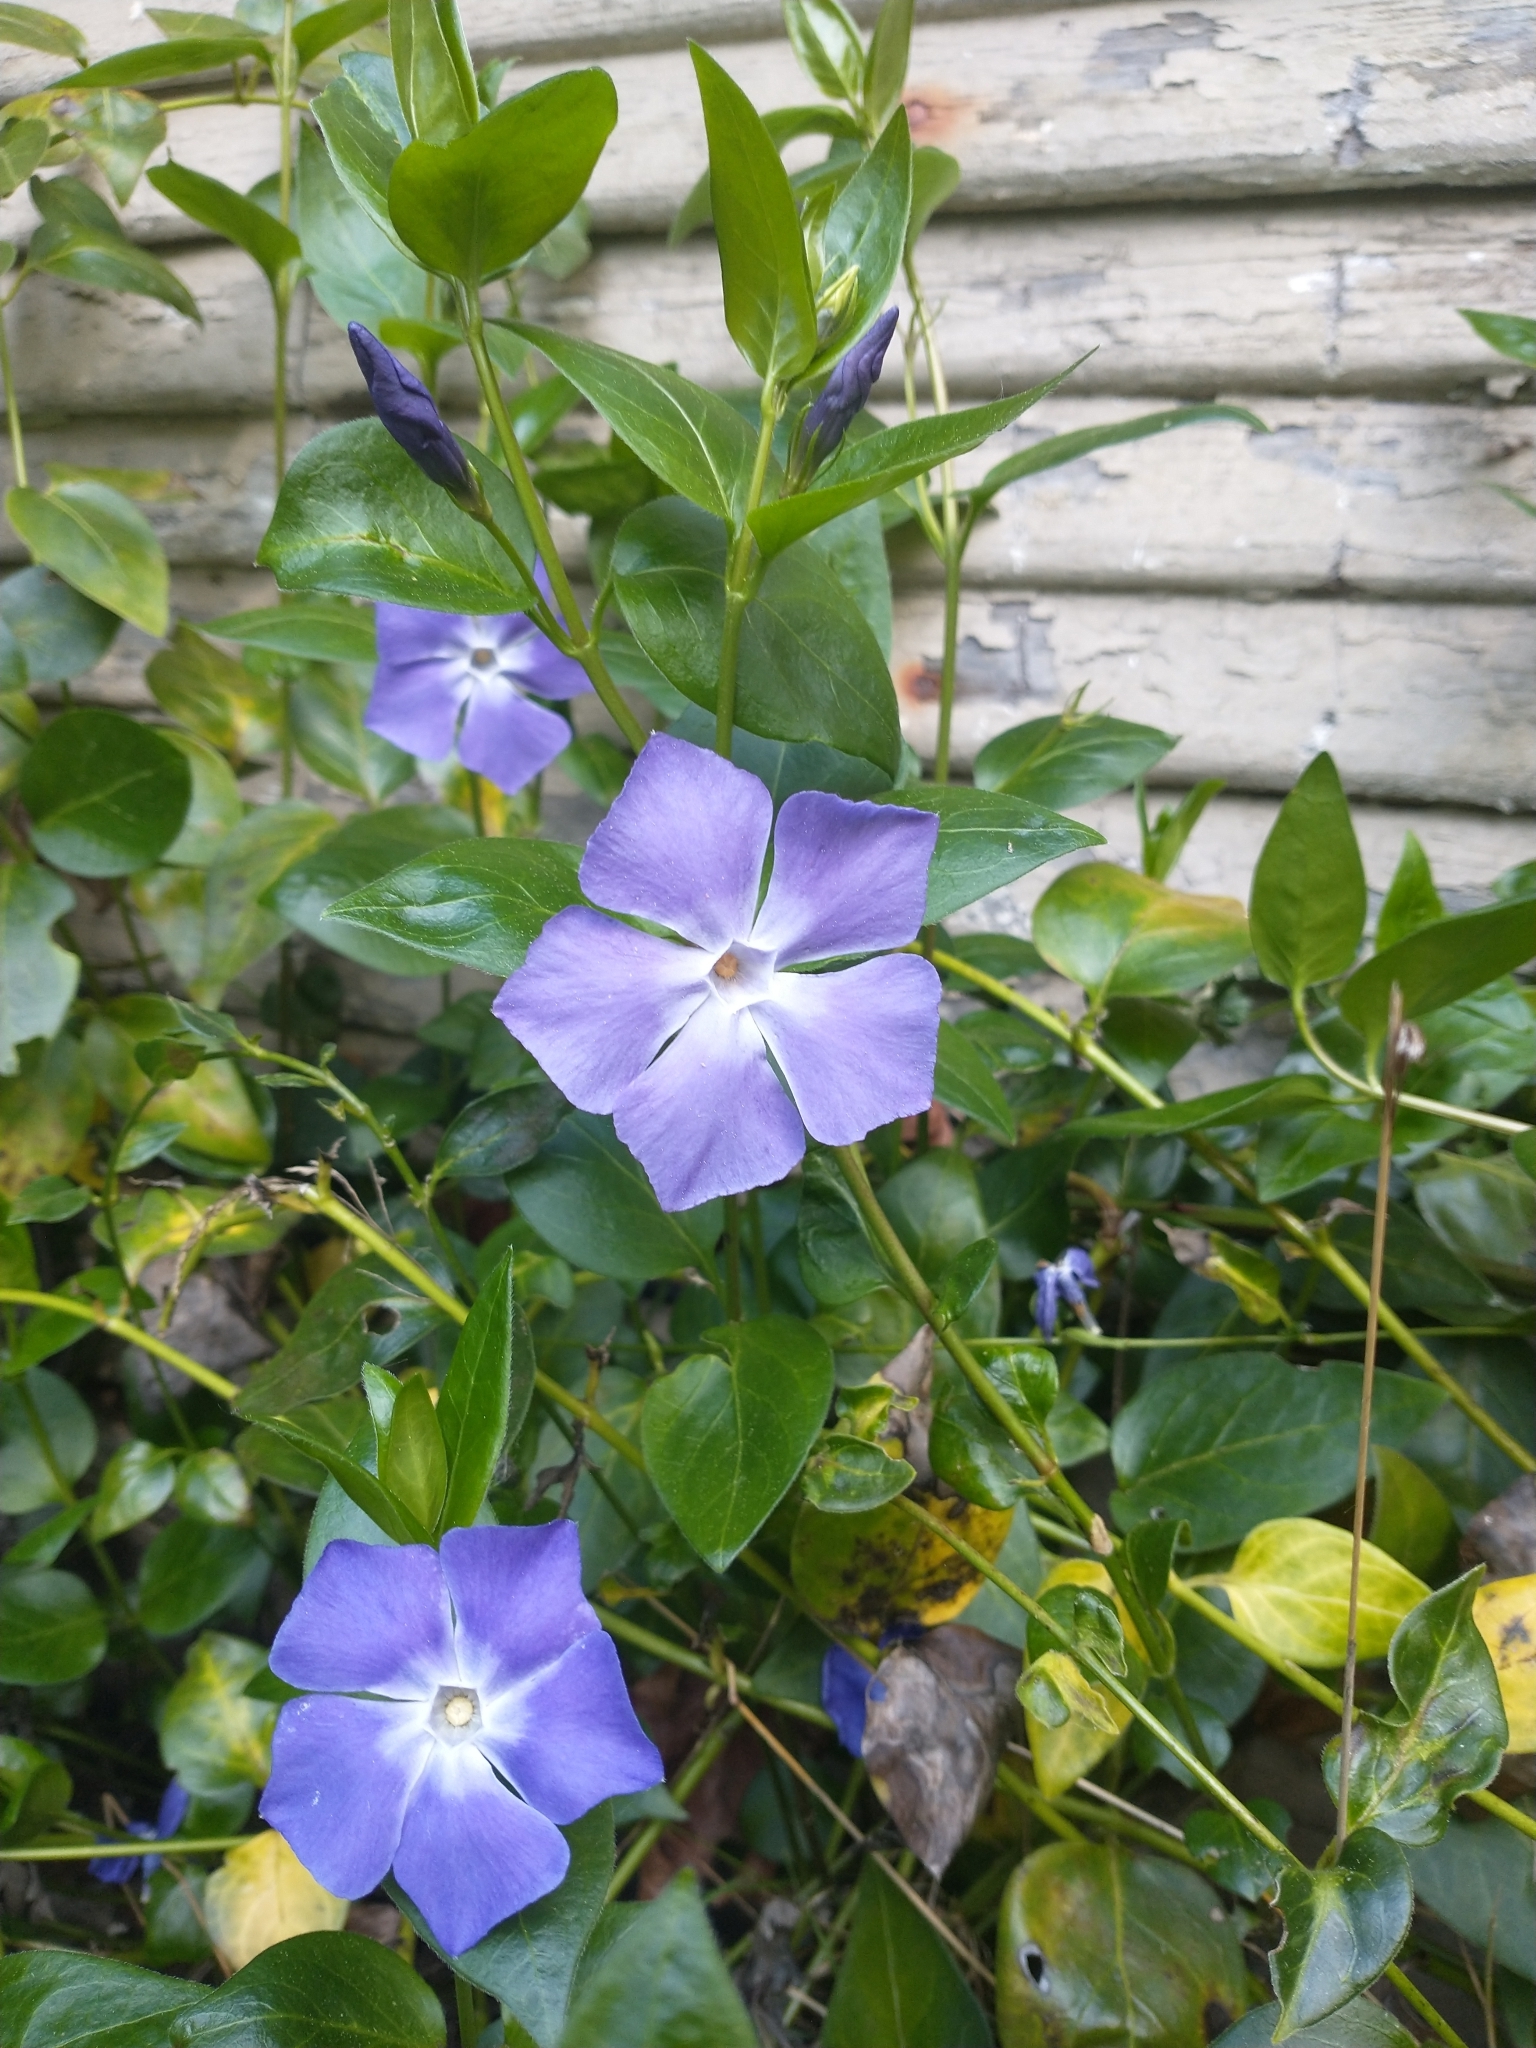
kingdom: Plantae
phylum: Tracheophyta
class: Magnoliopsida
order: Gentianales
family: Apocynaceae
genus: Vinca
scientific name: Vinca major
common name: Greater periwinkle
